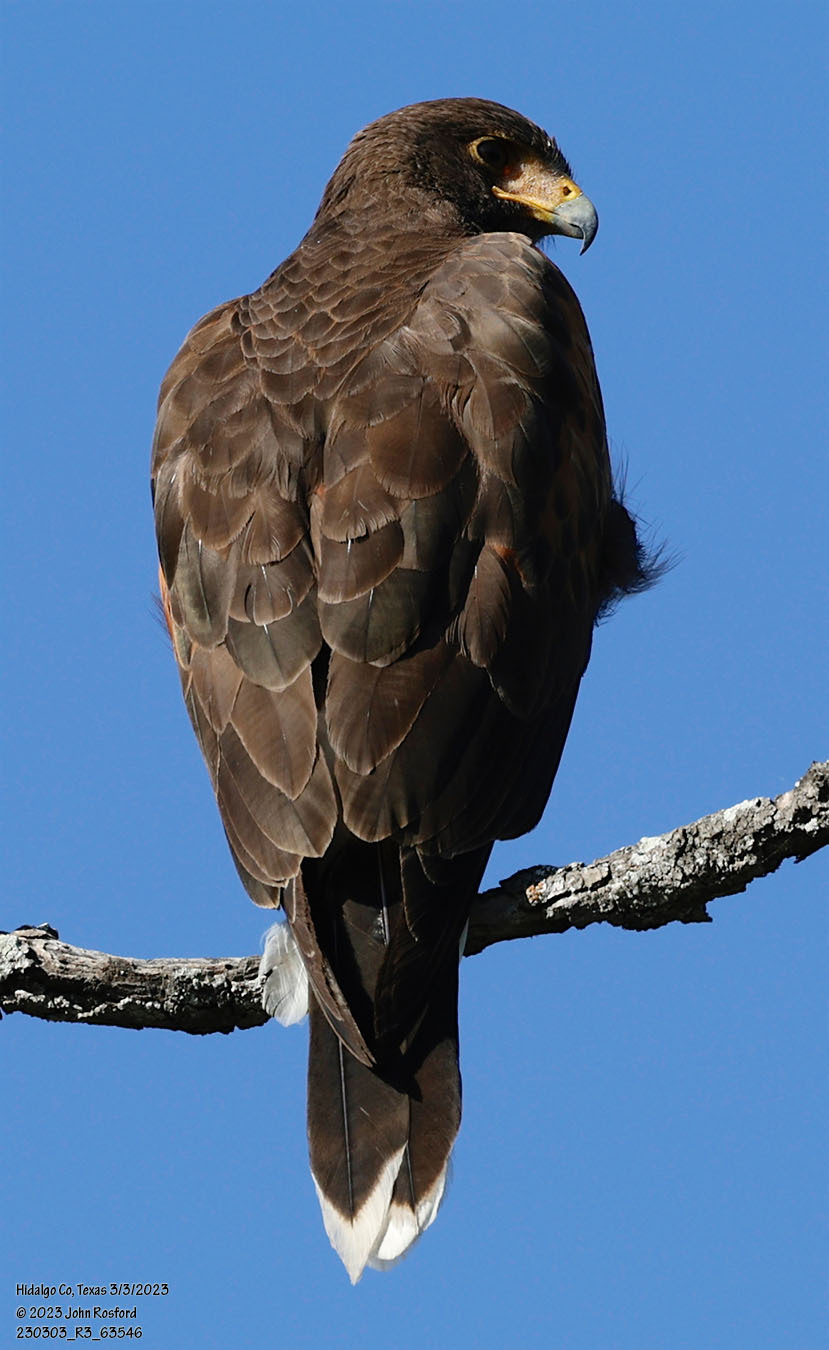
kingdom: Animalia
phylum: Chordata
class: Aves
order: Accipitriformes
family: Accipitridae
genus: Parabuteo
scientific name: Parabuteo unicinctus
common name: Harris's hawk
